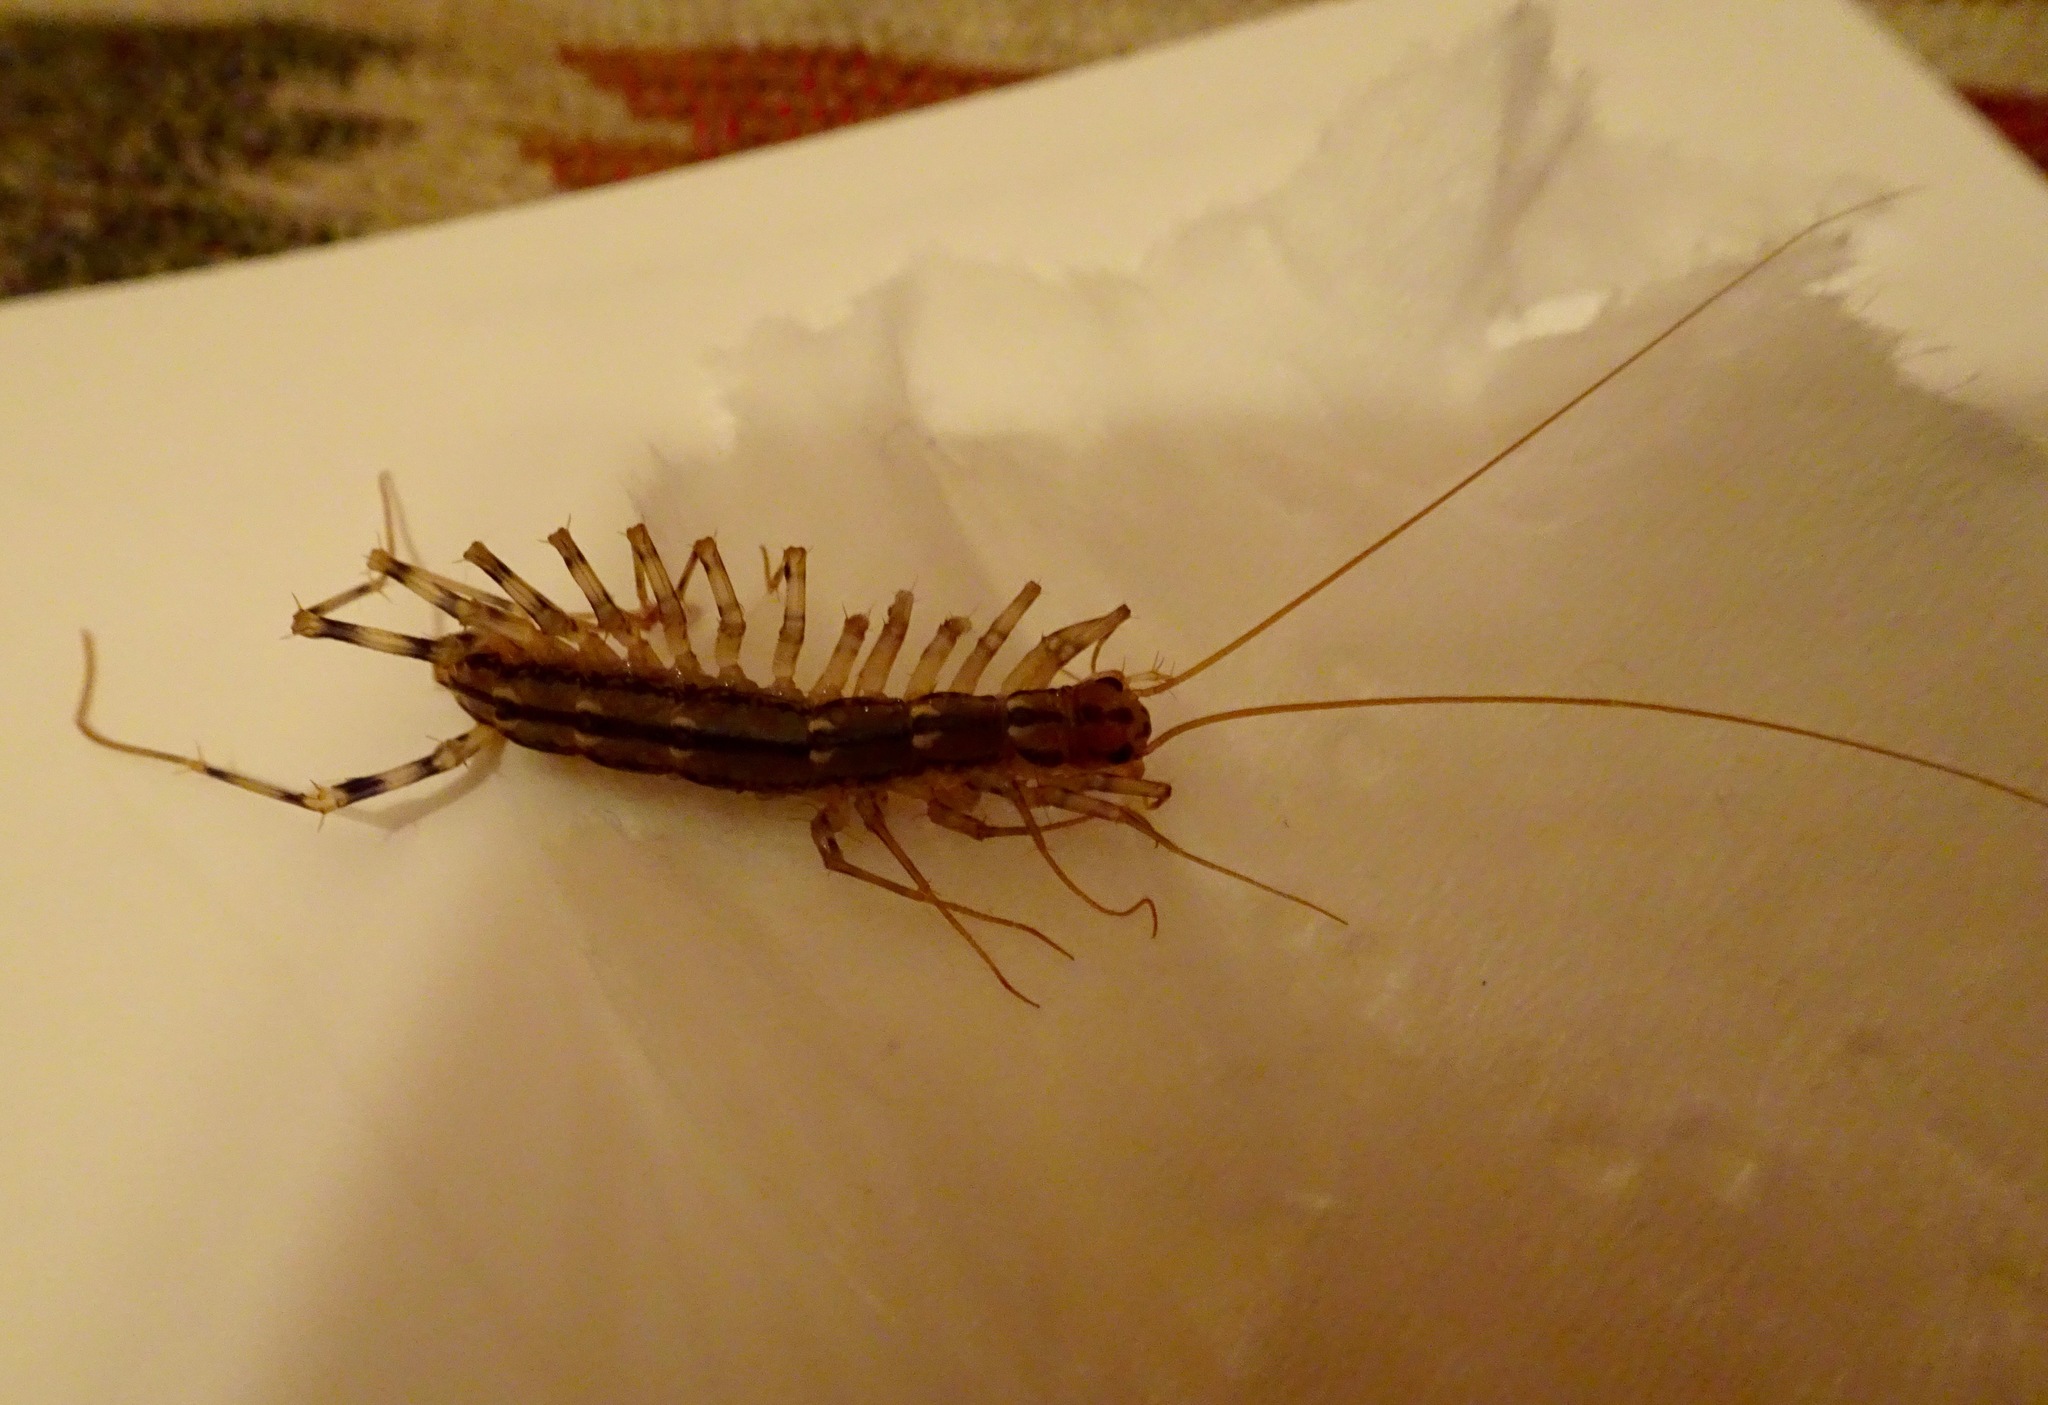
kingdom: Animalia
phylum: Arthropoda
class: Chilopoda
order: Scutigeromorpha
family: Scutigeridae
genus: Scutigera
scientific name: Scutigera coleoptrata
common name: House centipede
